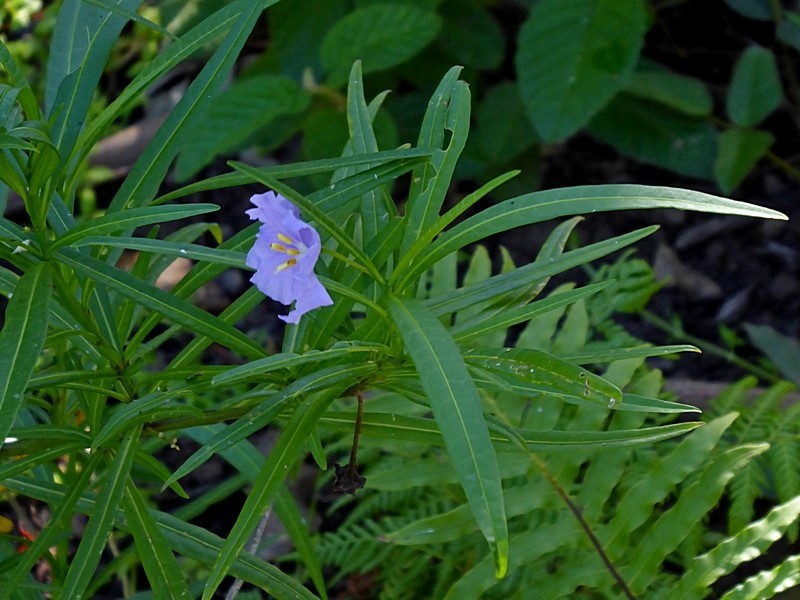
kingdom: Plantae
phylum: Tracheophyta
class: Magnoliopsida
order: Solanales
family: Solanaceae
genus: Solanum
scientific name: Solanum vescum
